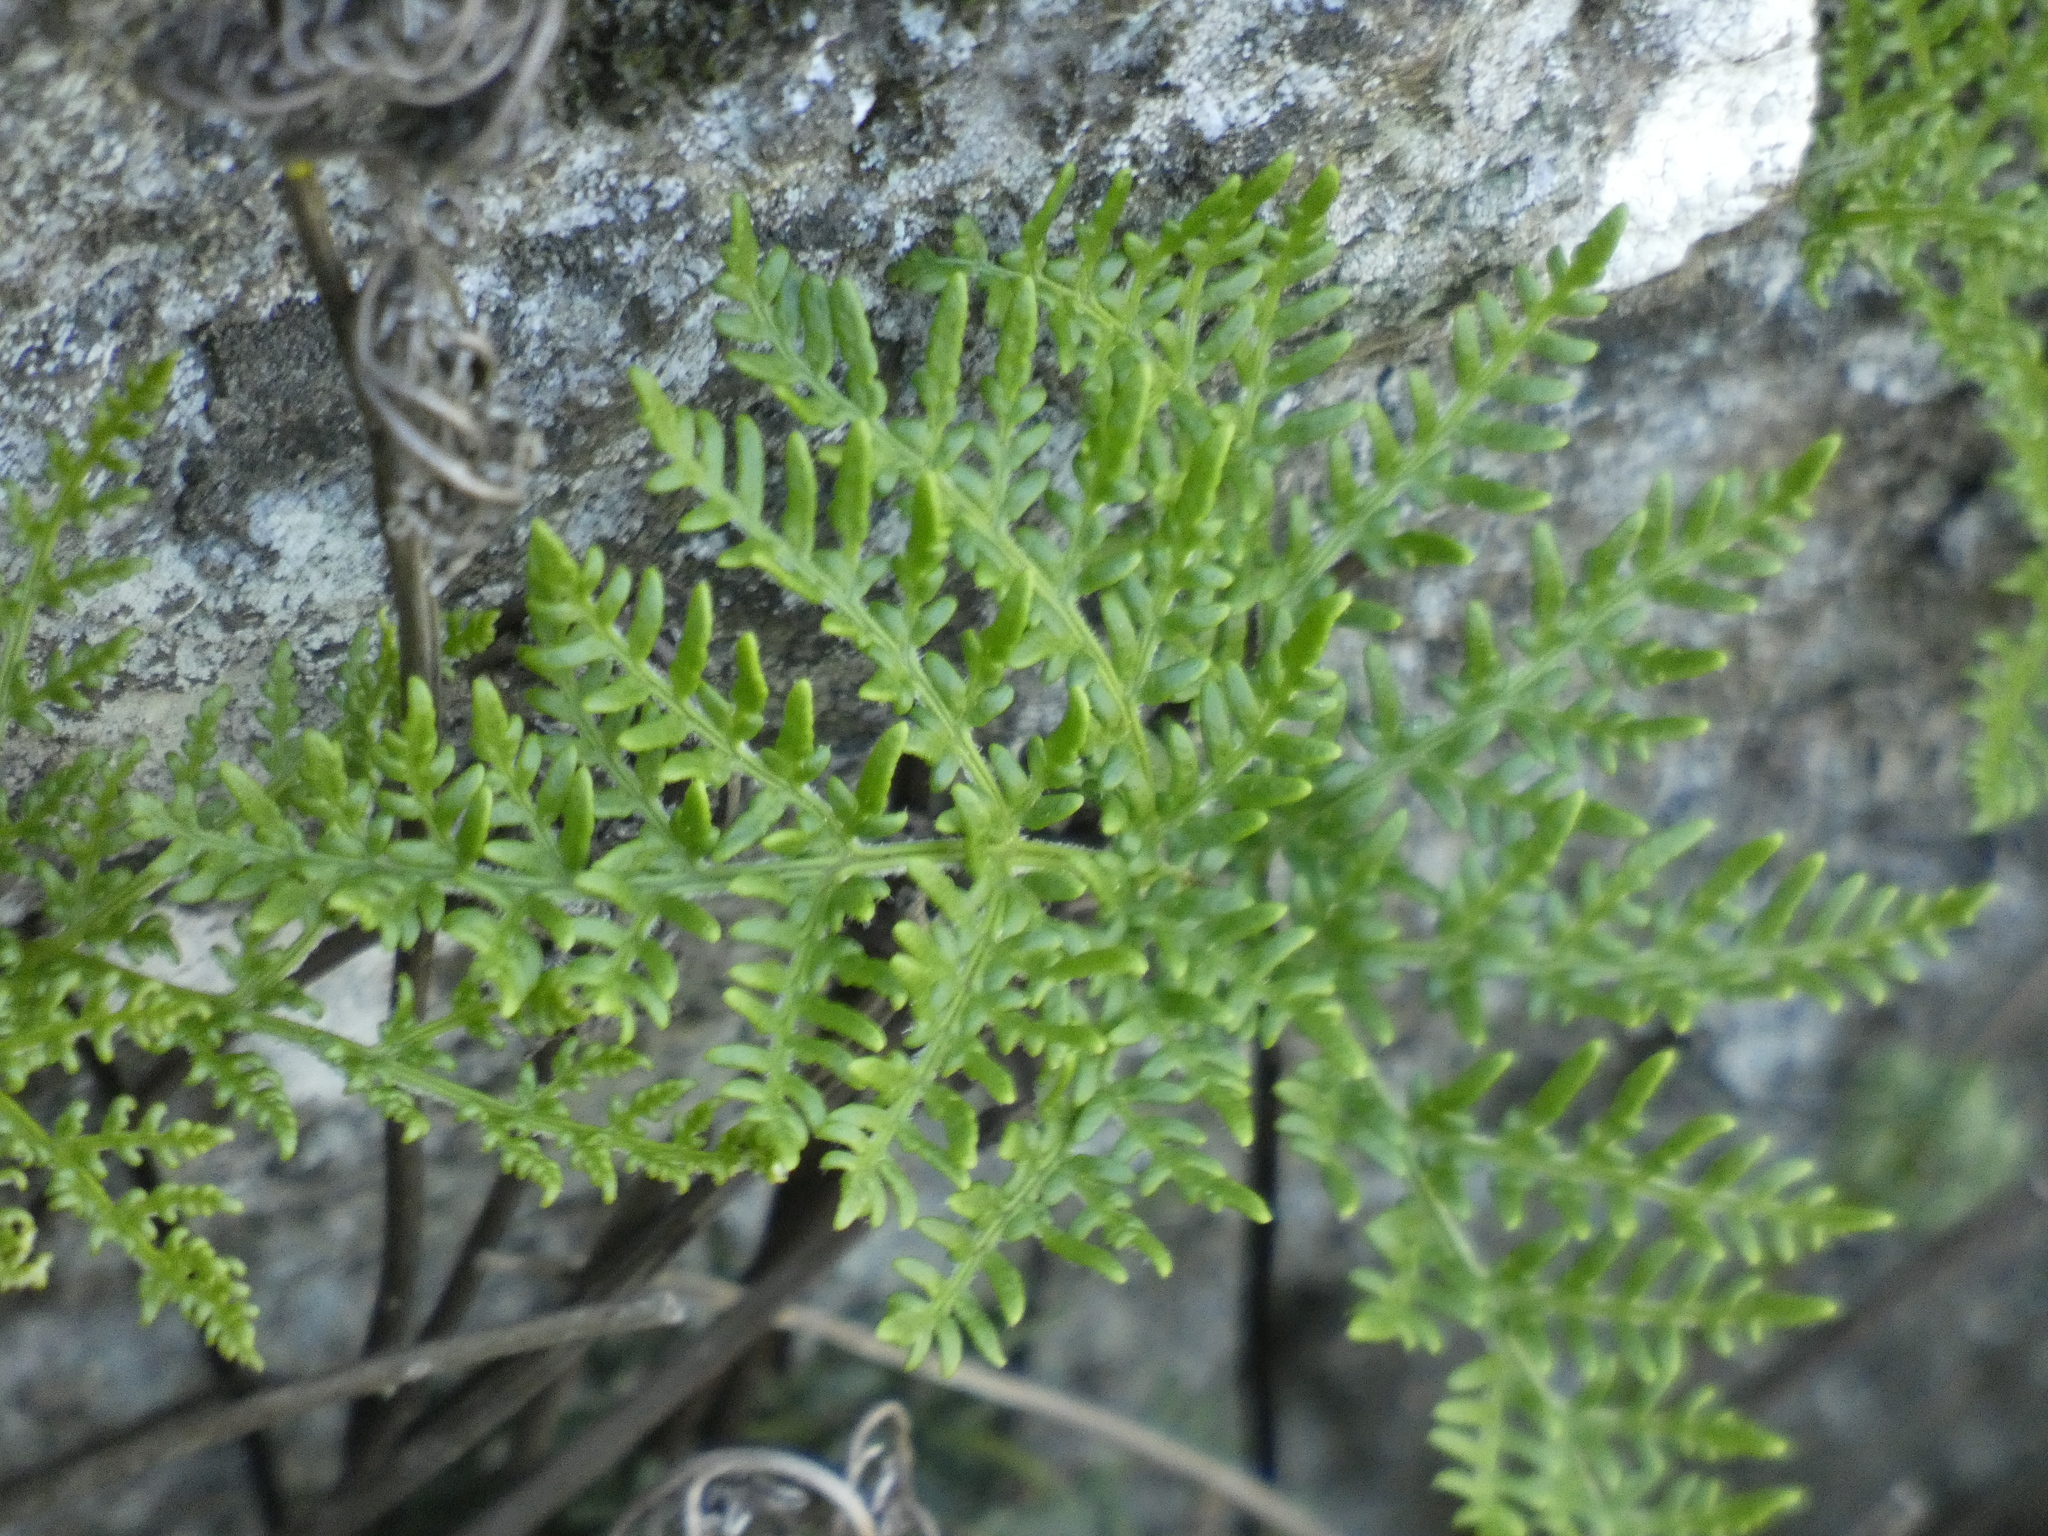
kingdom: Plantae
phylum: Tracheophyta
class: Polypodiopsida
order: Polypodiales
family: Pteridaceae
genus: Cheilanthes
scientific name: Cheilanthes glauca
